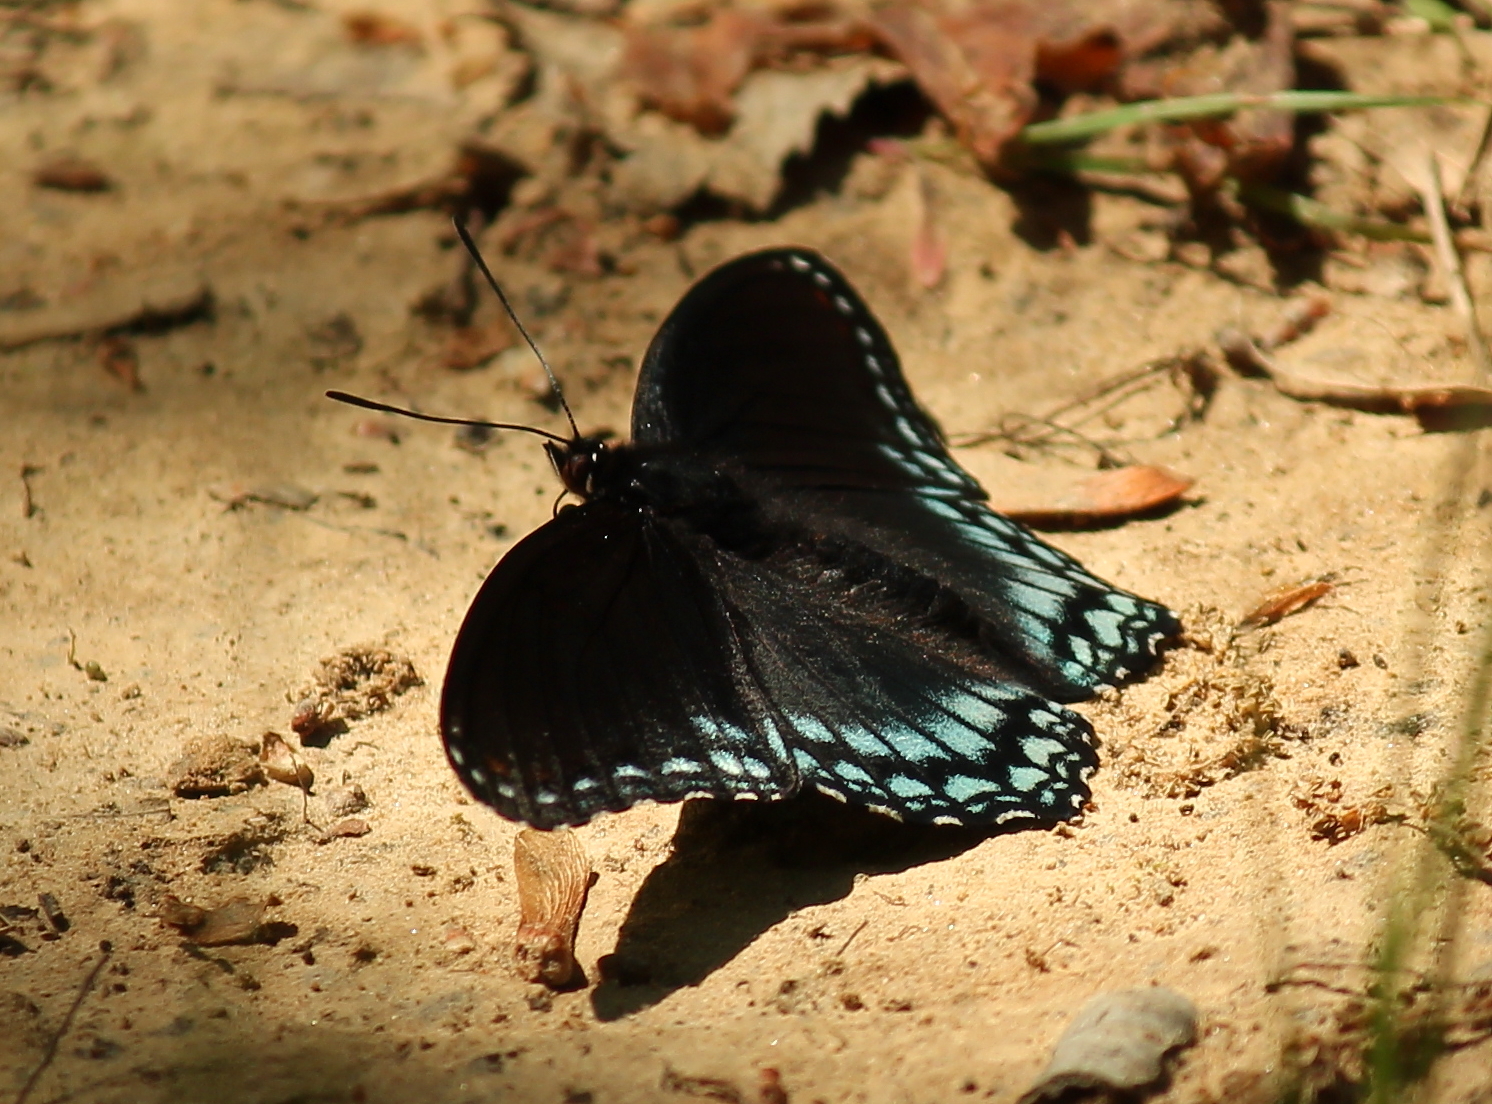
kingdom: Animalia
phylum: Arthropoda
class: Insecta
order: Lepidoptera
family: Nymphalidae
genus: Limenitis
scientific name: Limenitis astyanax
